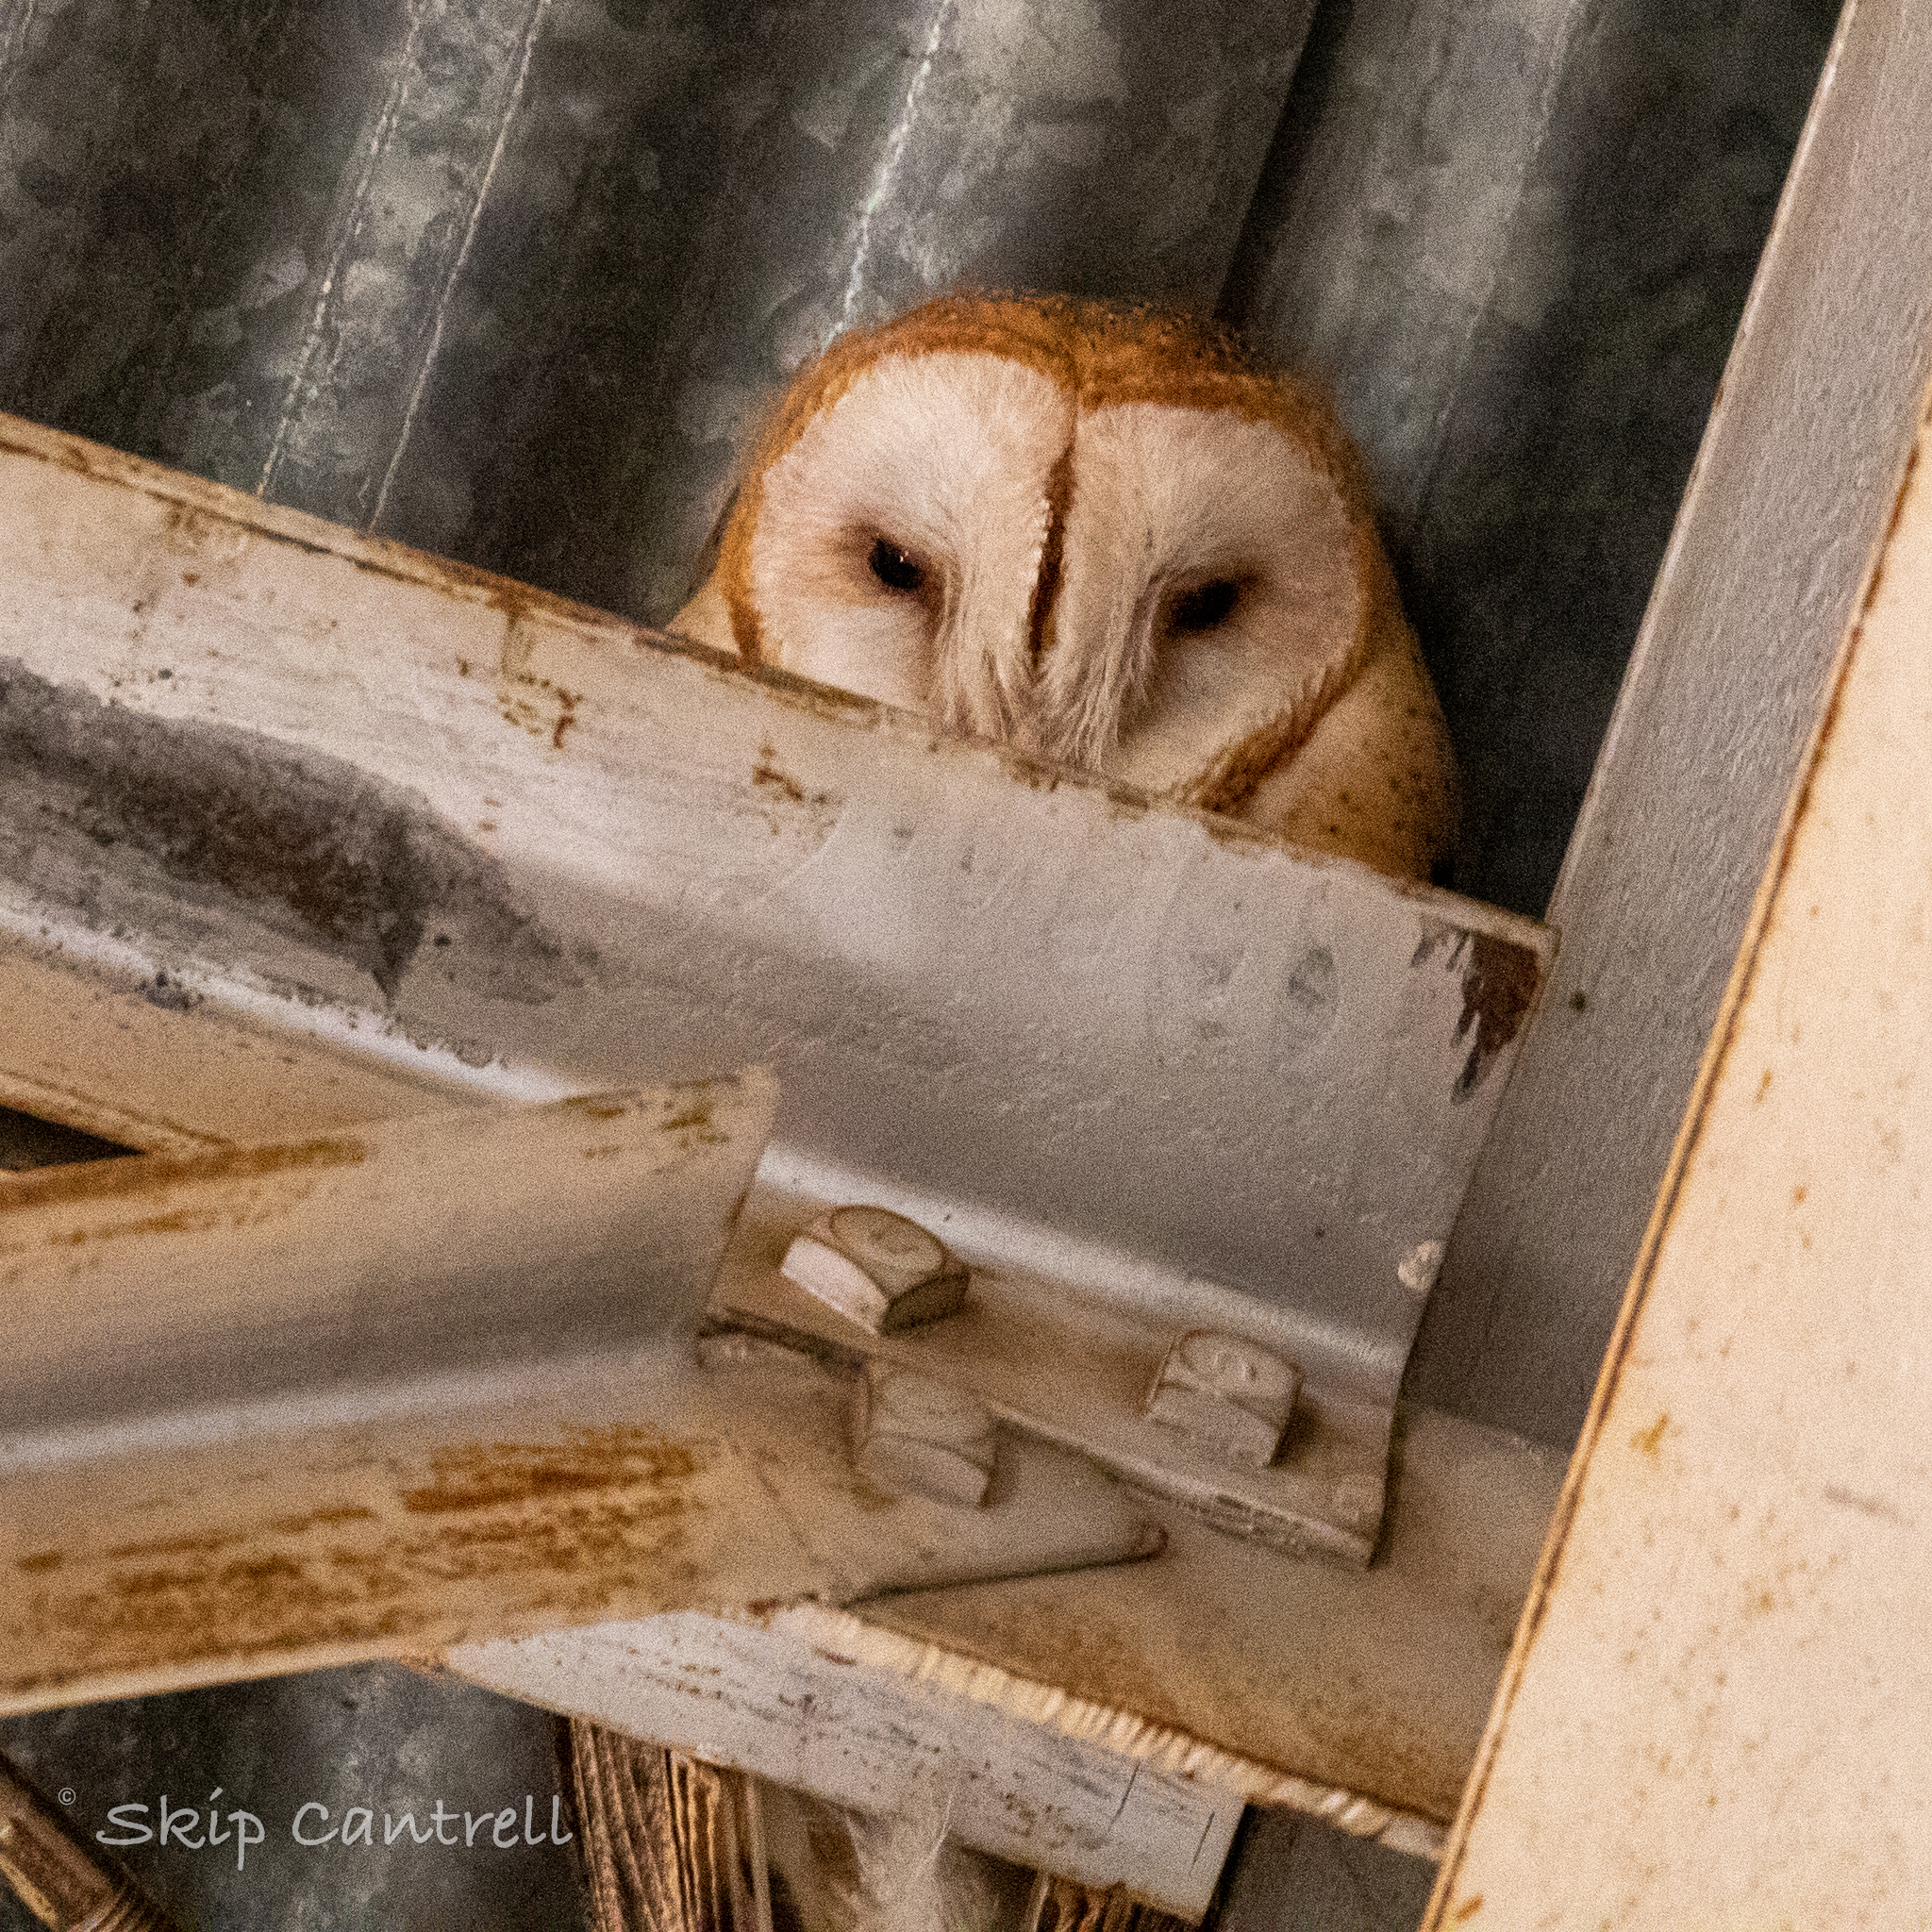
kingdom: Animalia
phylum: Chordata
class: Aves
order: Strigiformes
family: Tytonidae
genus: Tyto
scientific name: Tyto alba
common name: Barn owl
